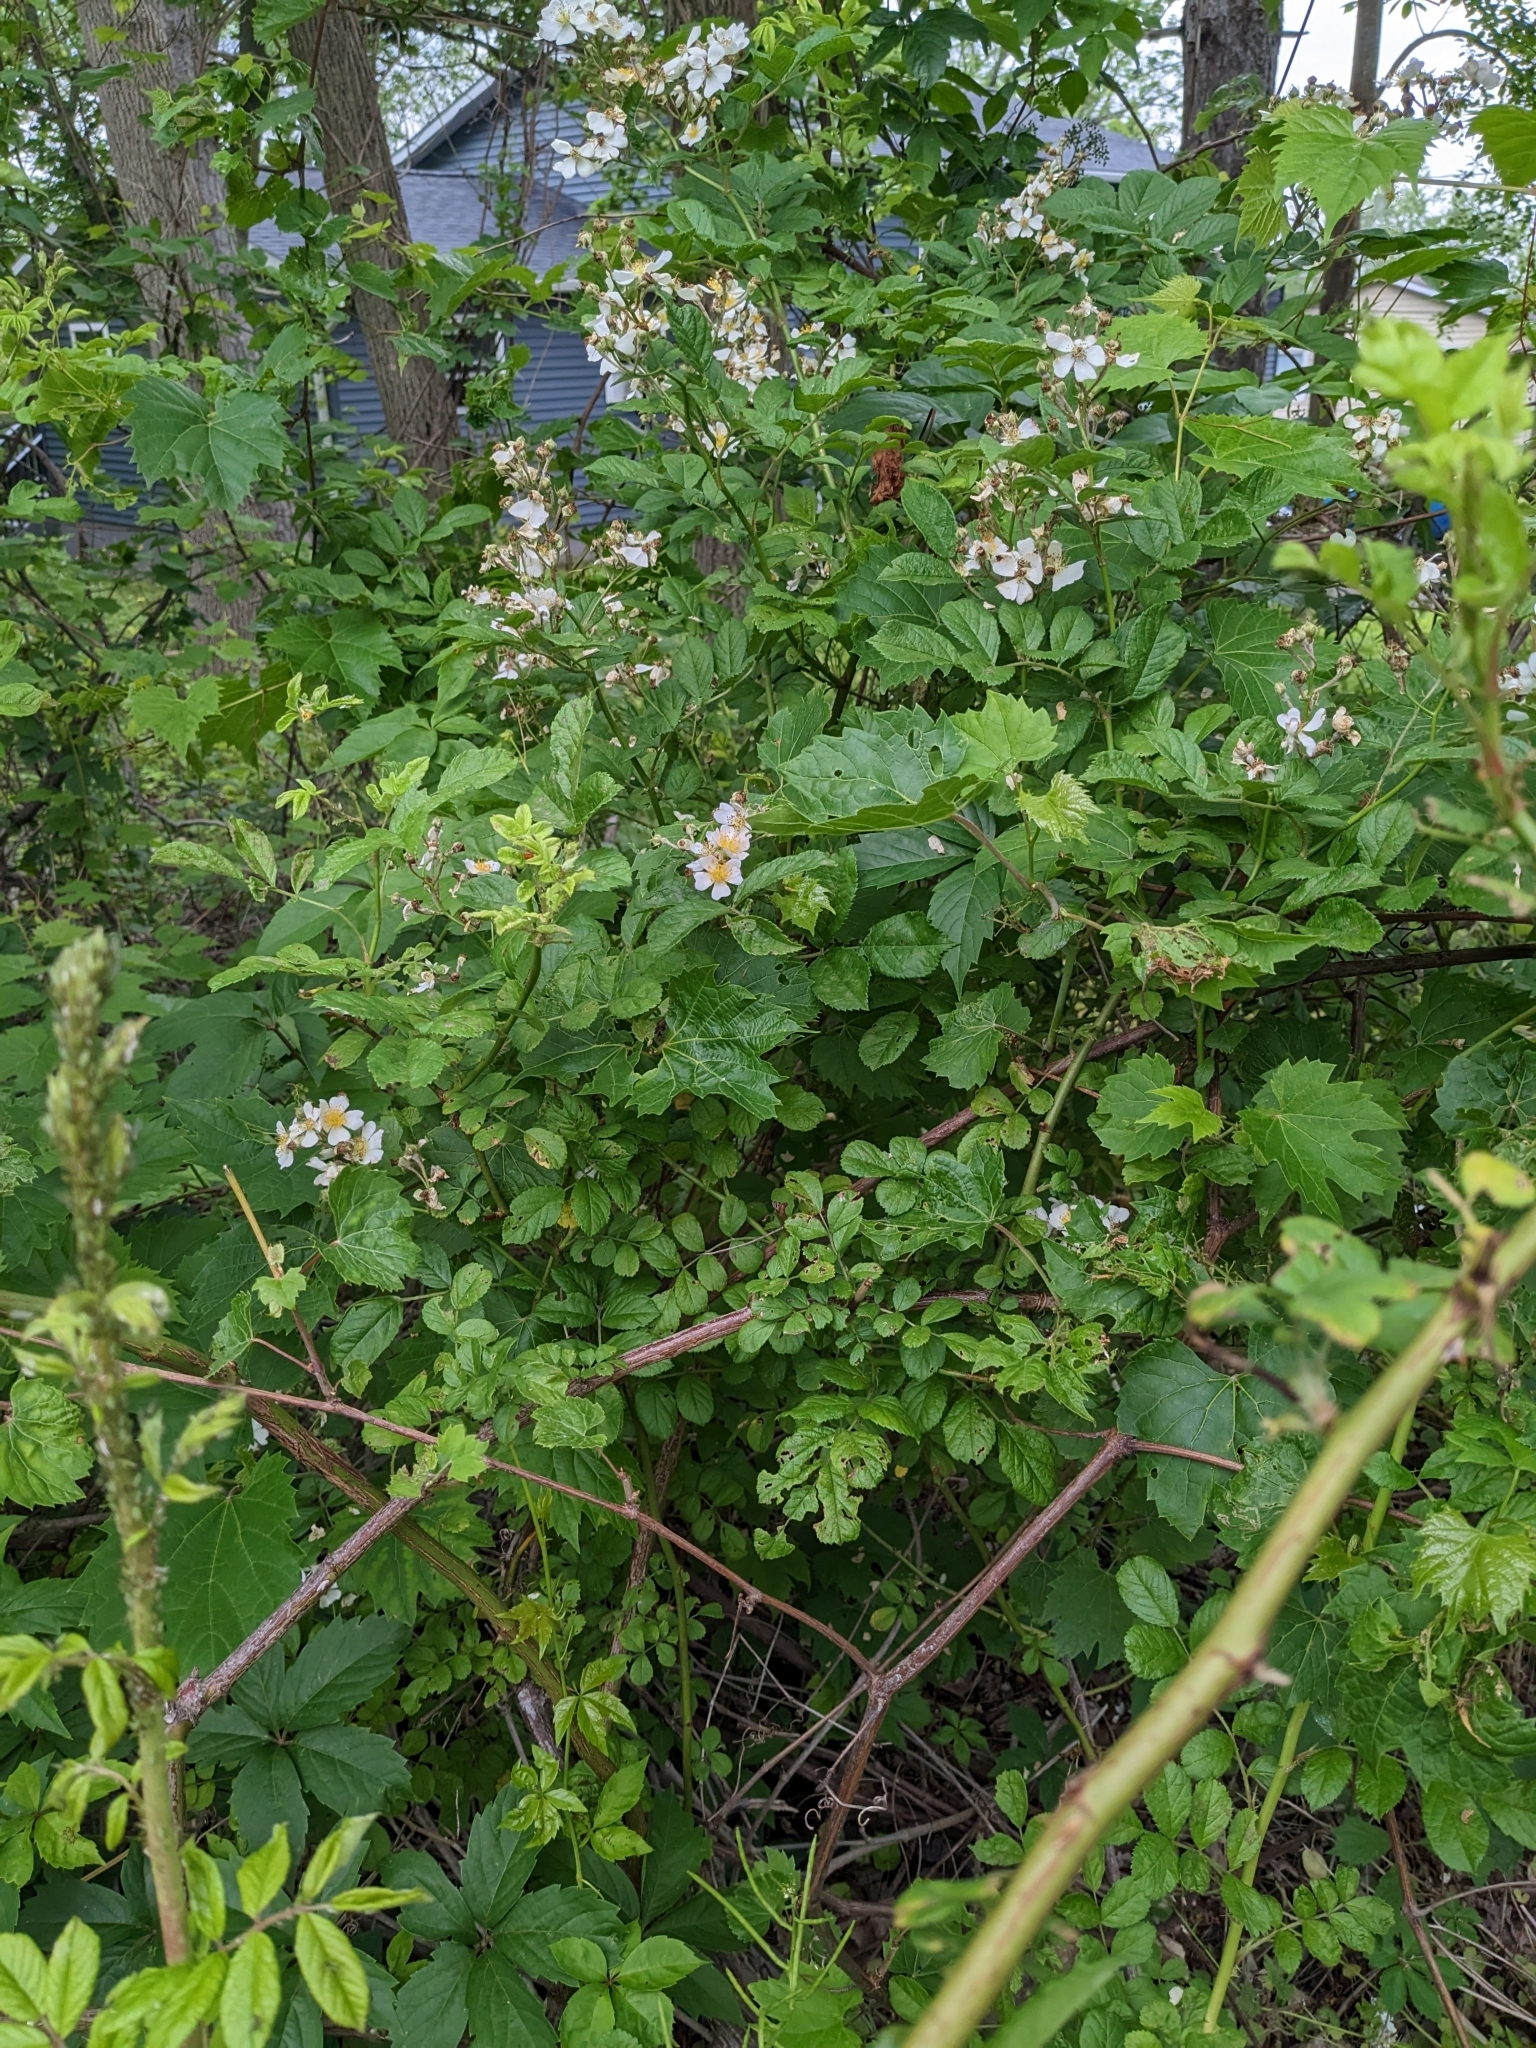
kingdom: Plantae
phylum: Tracheophyta
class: Magnoliopsida
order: Rosales
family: Rosaceae
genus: Rosa
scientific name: Rosa multiflora
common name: Multiflora rose
